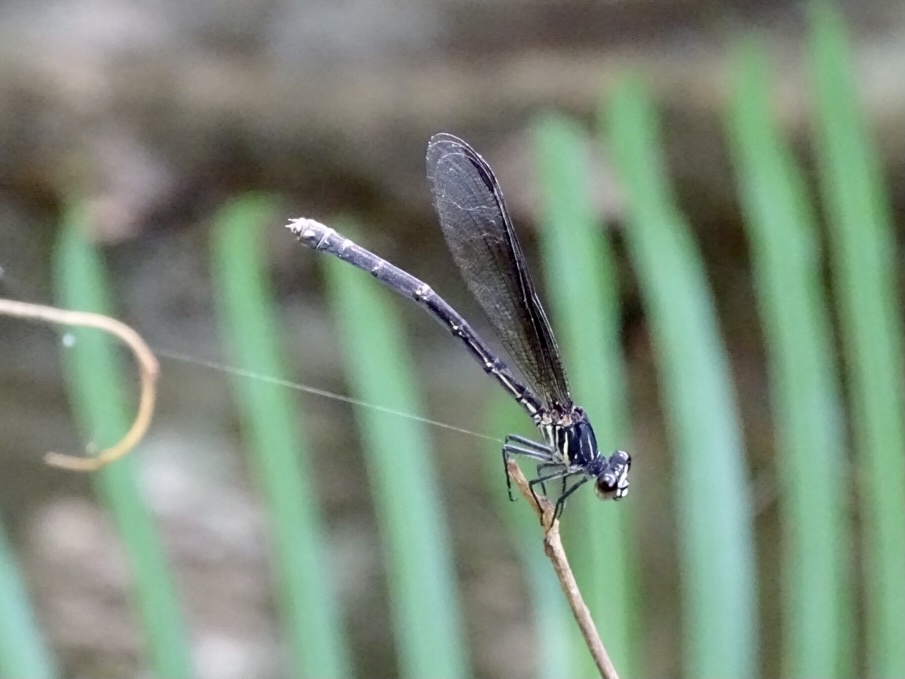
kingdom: Animalia
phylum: Arthropoda
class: Insecta
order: Odonata
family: Euphaeidae
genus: Euphaea
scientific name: Euphaea decorata
